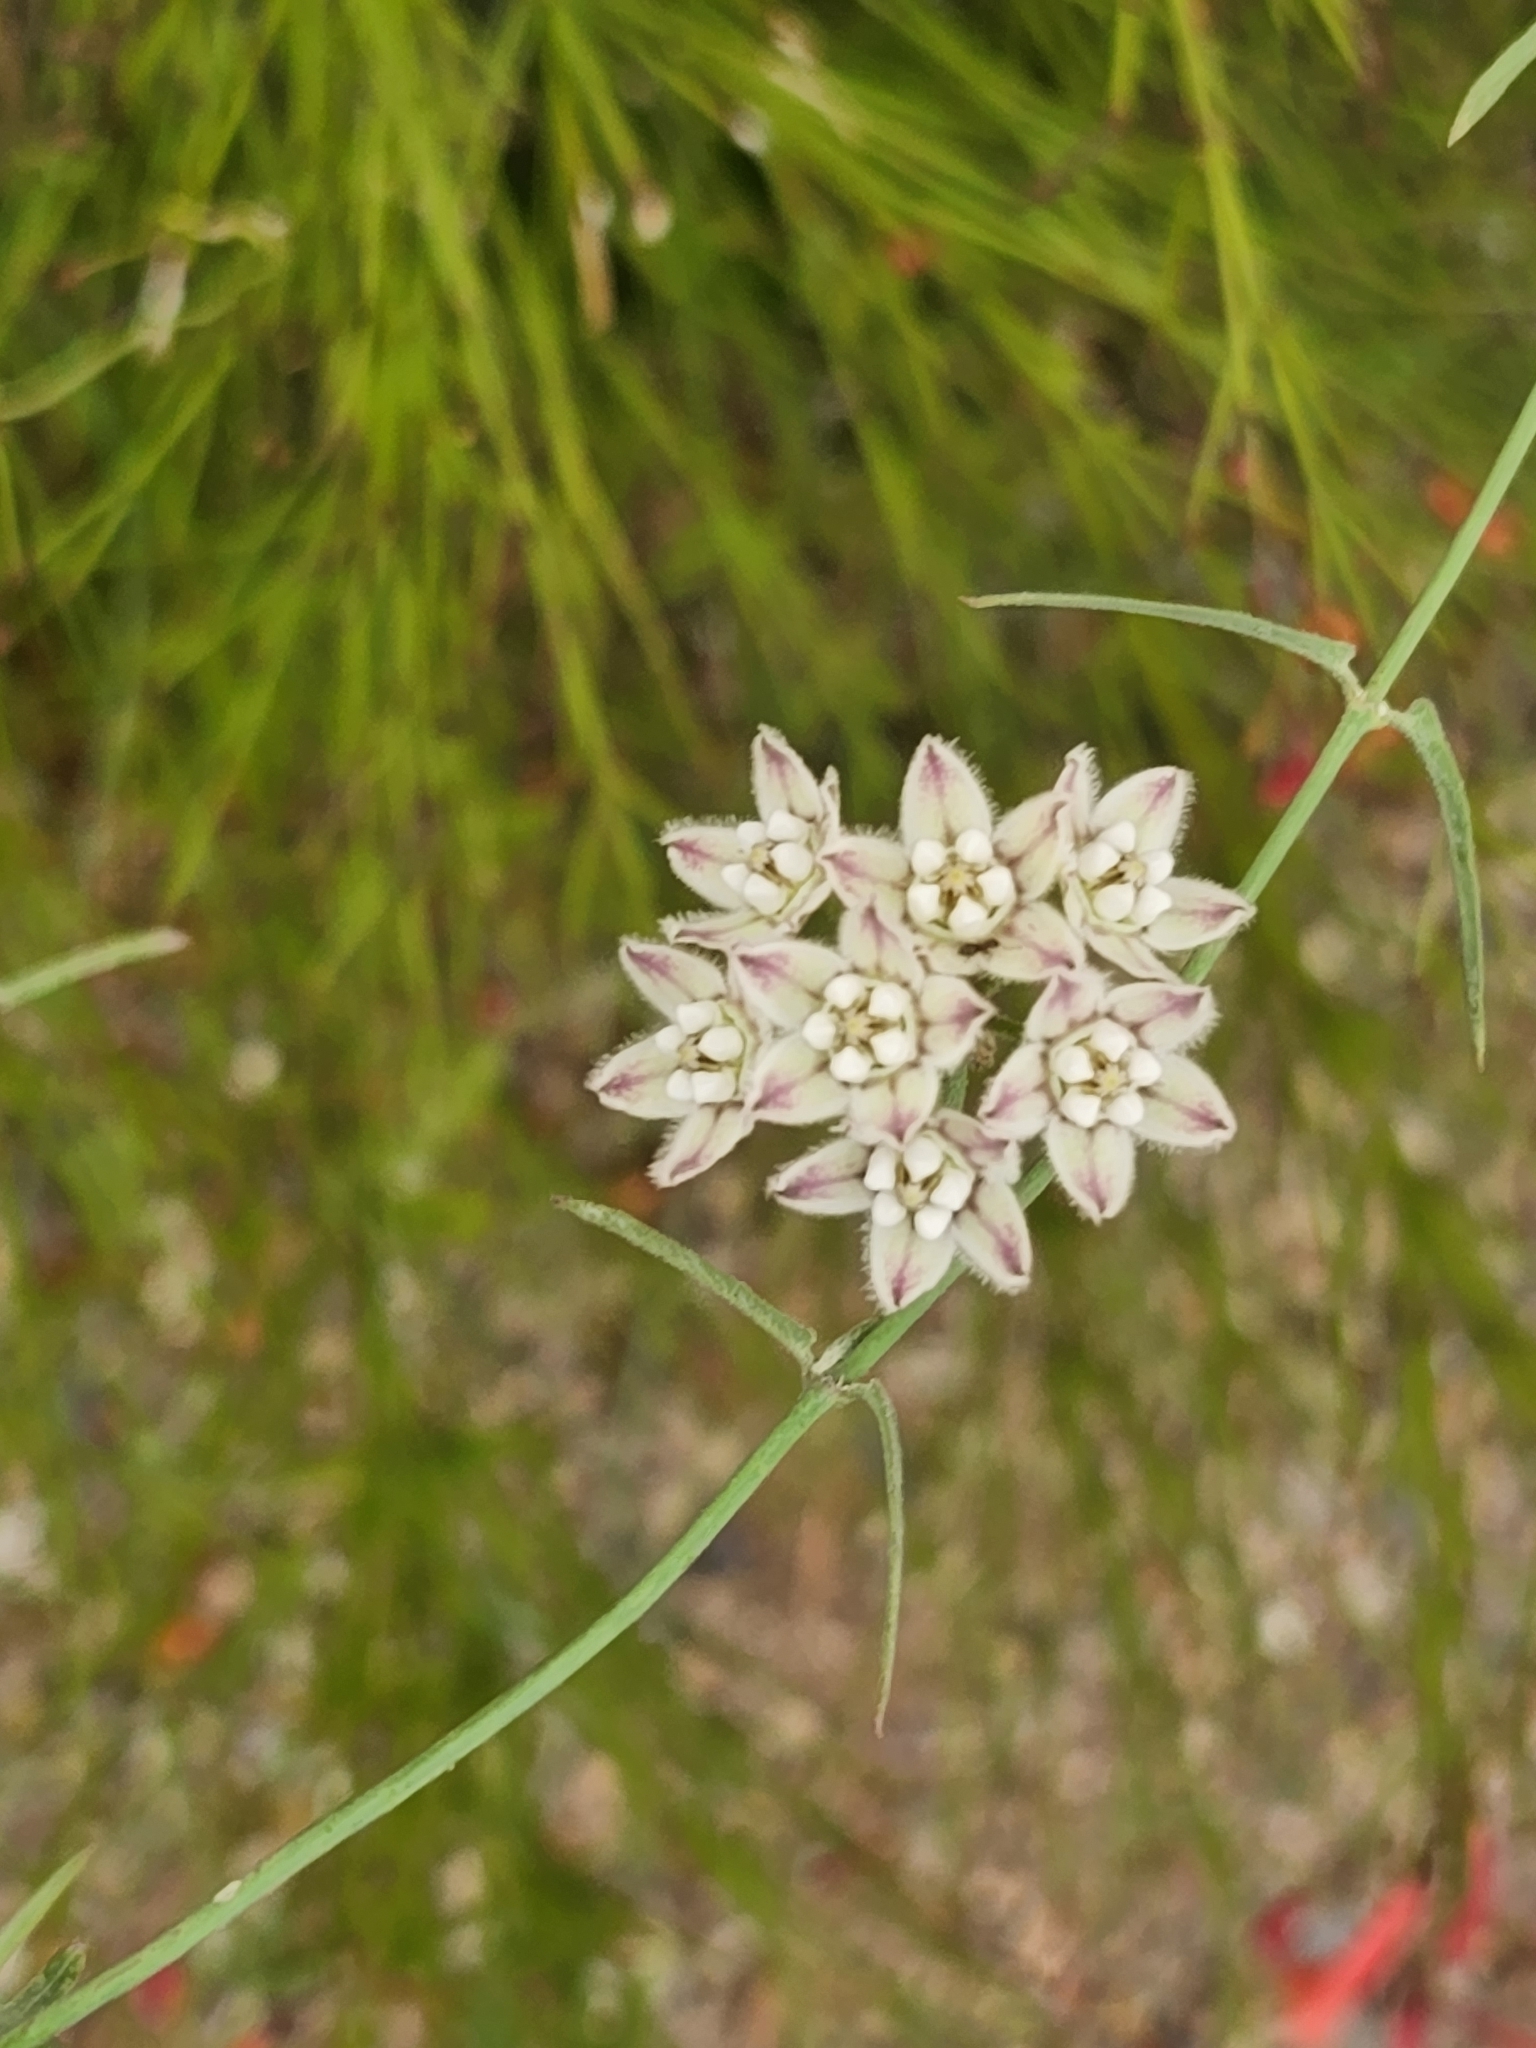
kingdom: Plantae
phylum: Tracheophyta
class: Magnoliopsida
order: Gentianales
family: Apocynaceae
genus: Funastrum
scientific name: Funastrum heterophyllum
